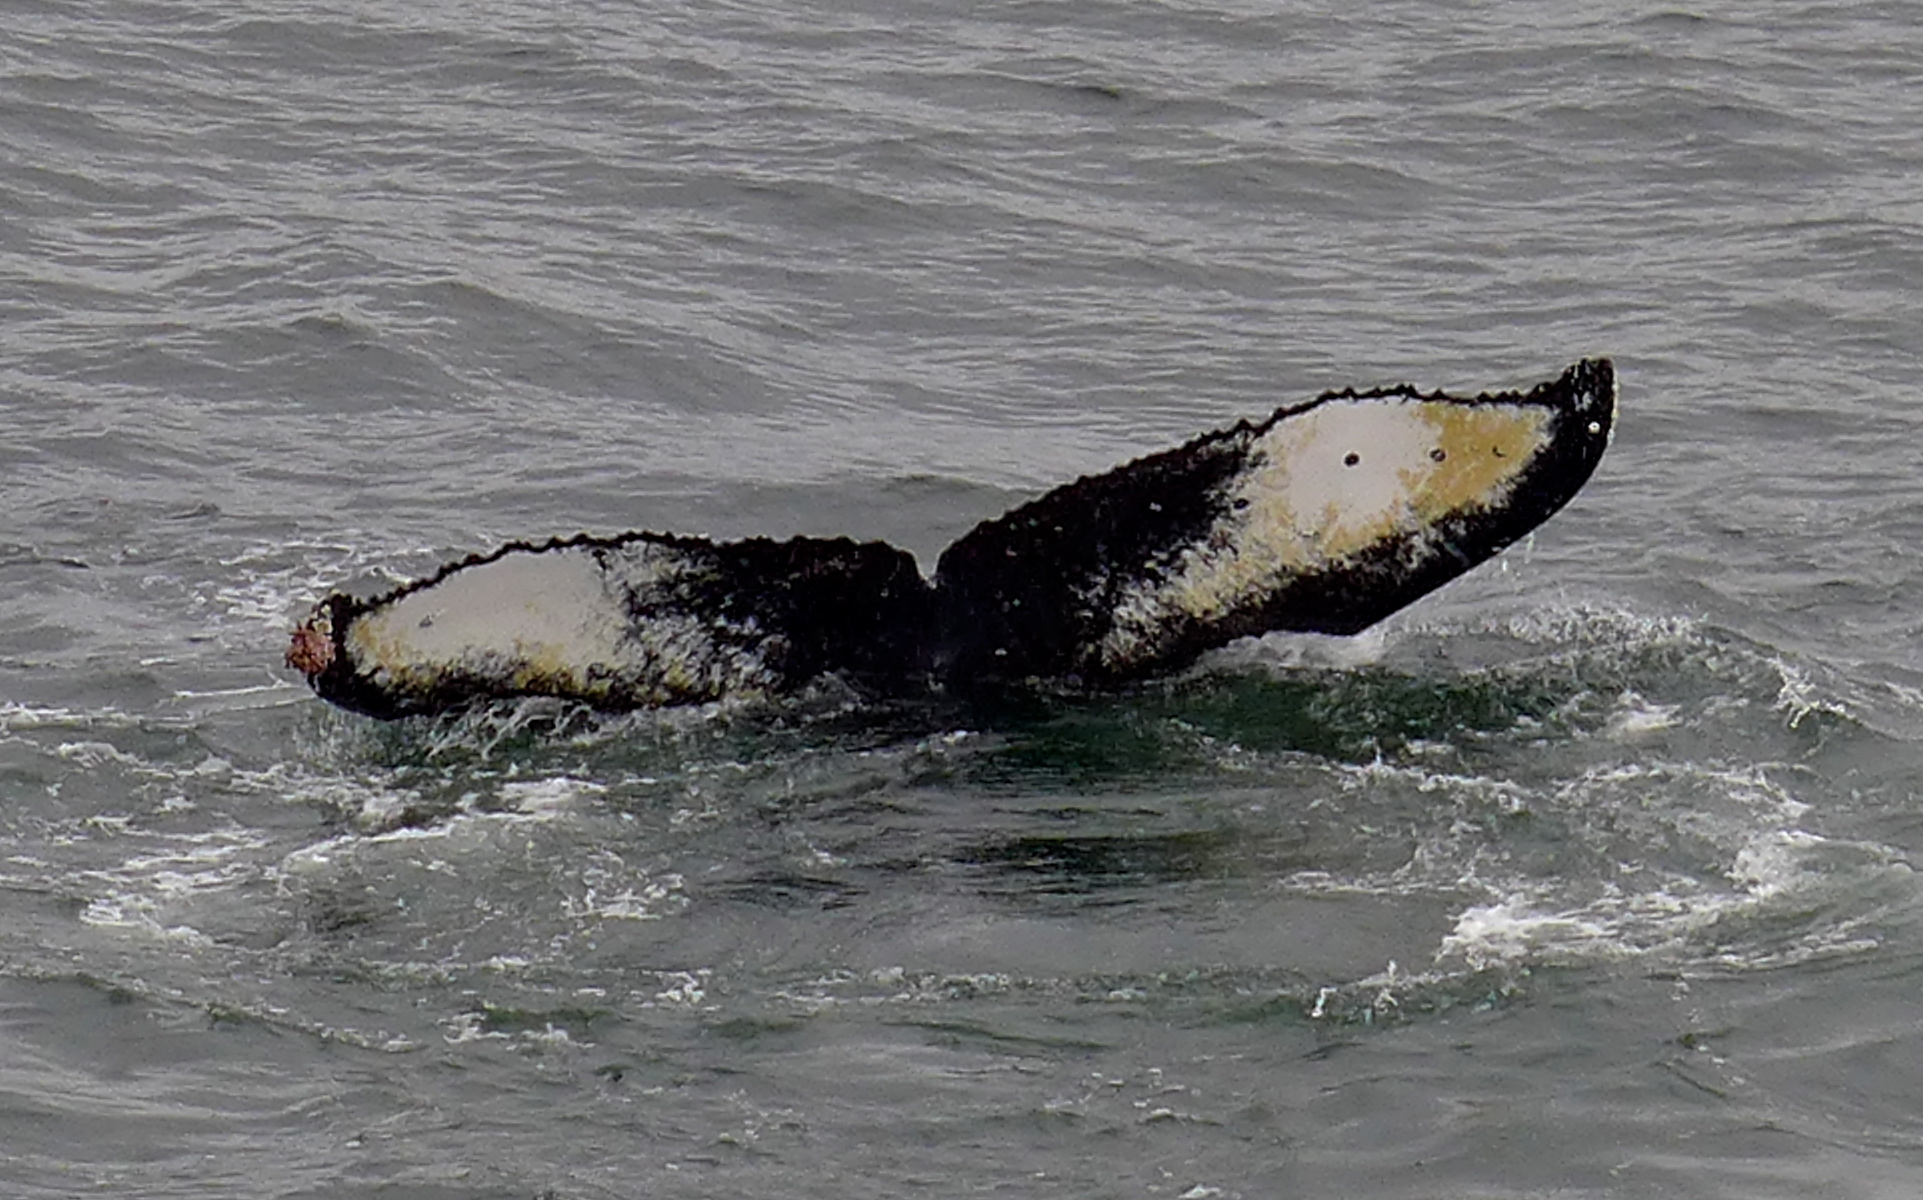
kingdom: Animalia
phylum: Chordata
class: Mammalia
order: Cetacea
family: Balaenopteridae
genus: Megaptera
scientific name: Megaptera novaeangliae
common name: Humpback whale
